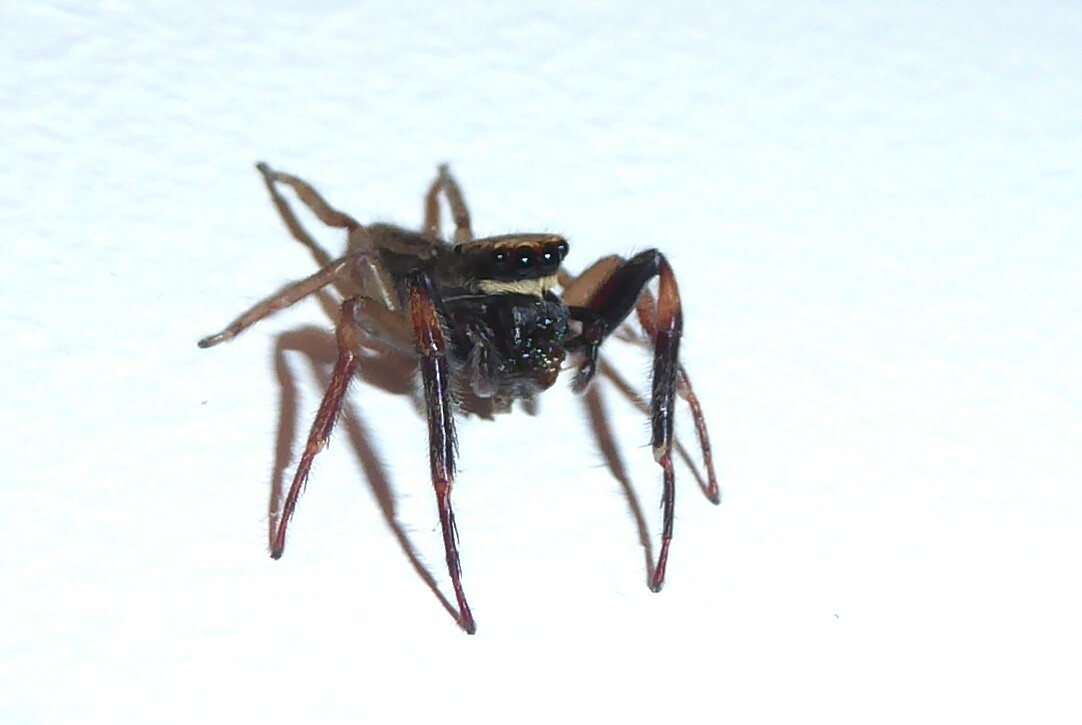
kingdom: Animalia
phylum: Arthropoda
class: Arachnida
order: Araneae
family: Salticidae
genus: Trite
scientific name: Trite auricoma
